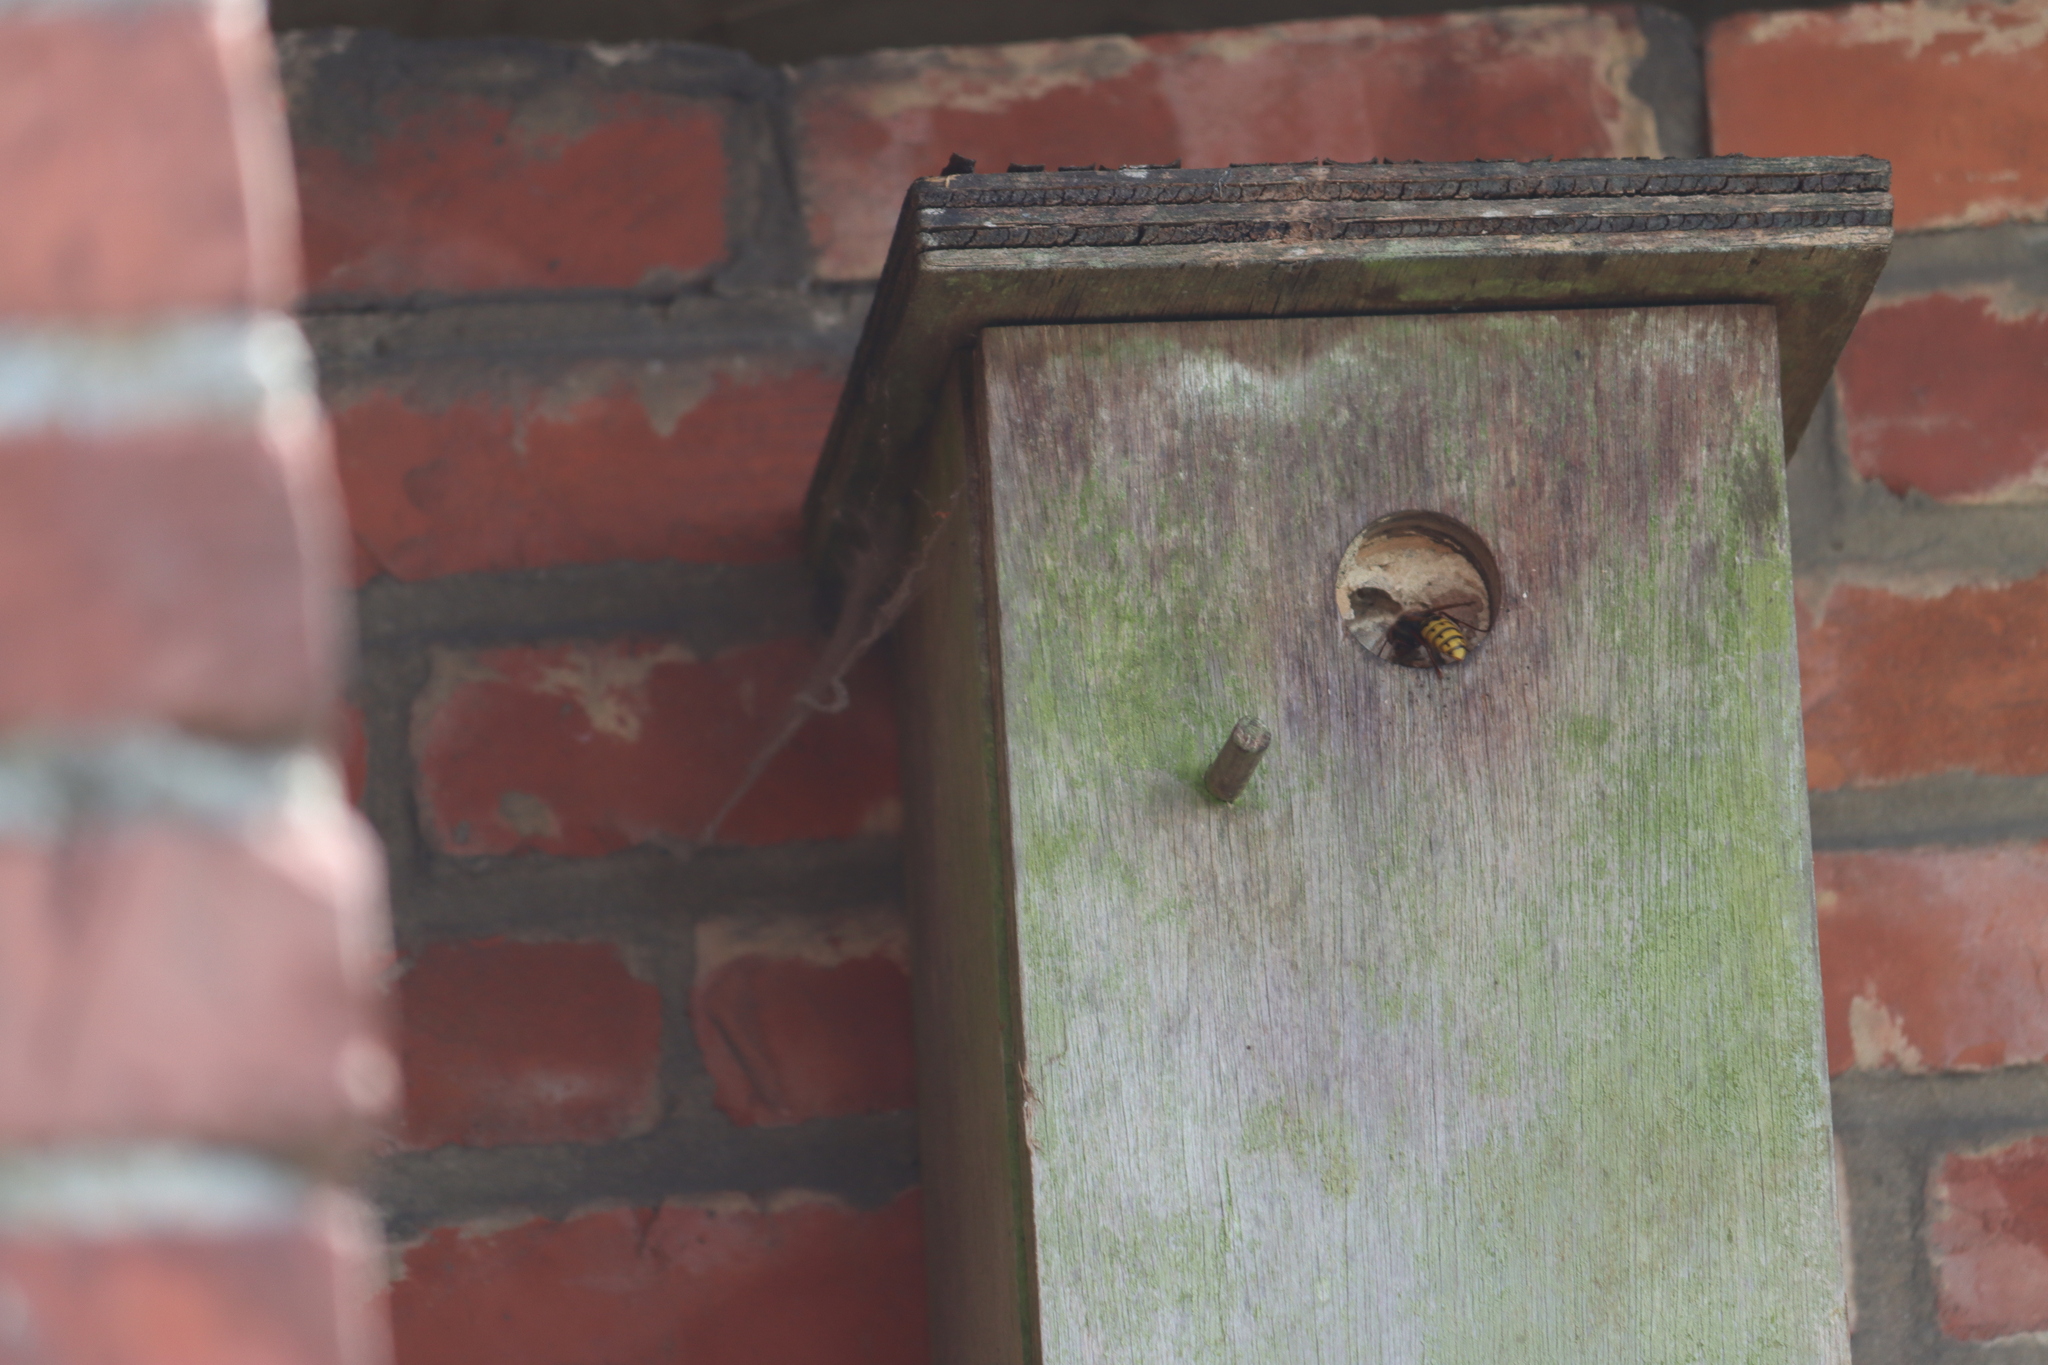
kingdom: Animalia
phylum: Arthropoda
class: Insecta
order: Hymenoptera
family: Vespidae
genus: Vespa
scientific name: Vespa crabro
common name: Hornet
